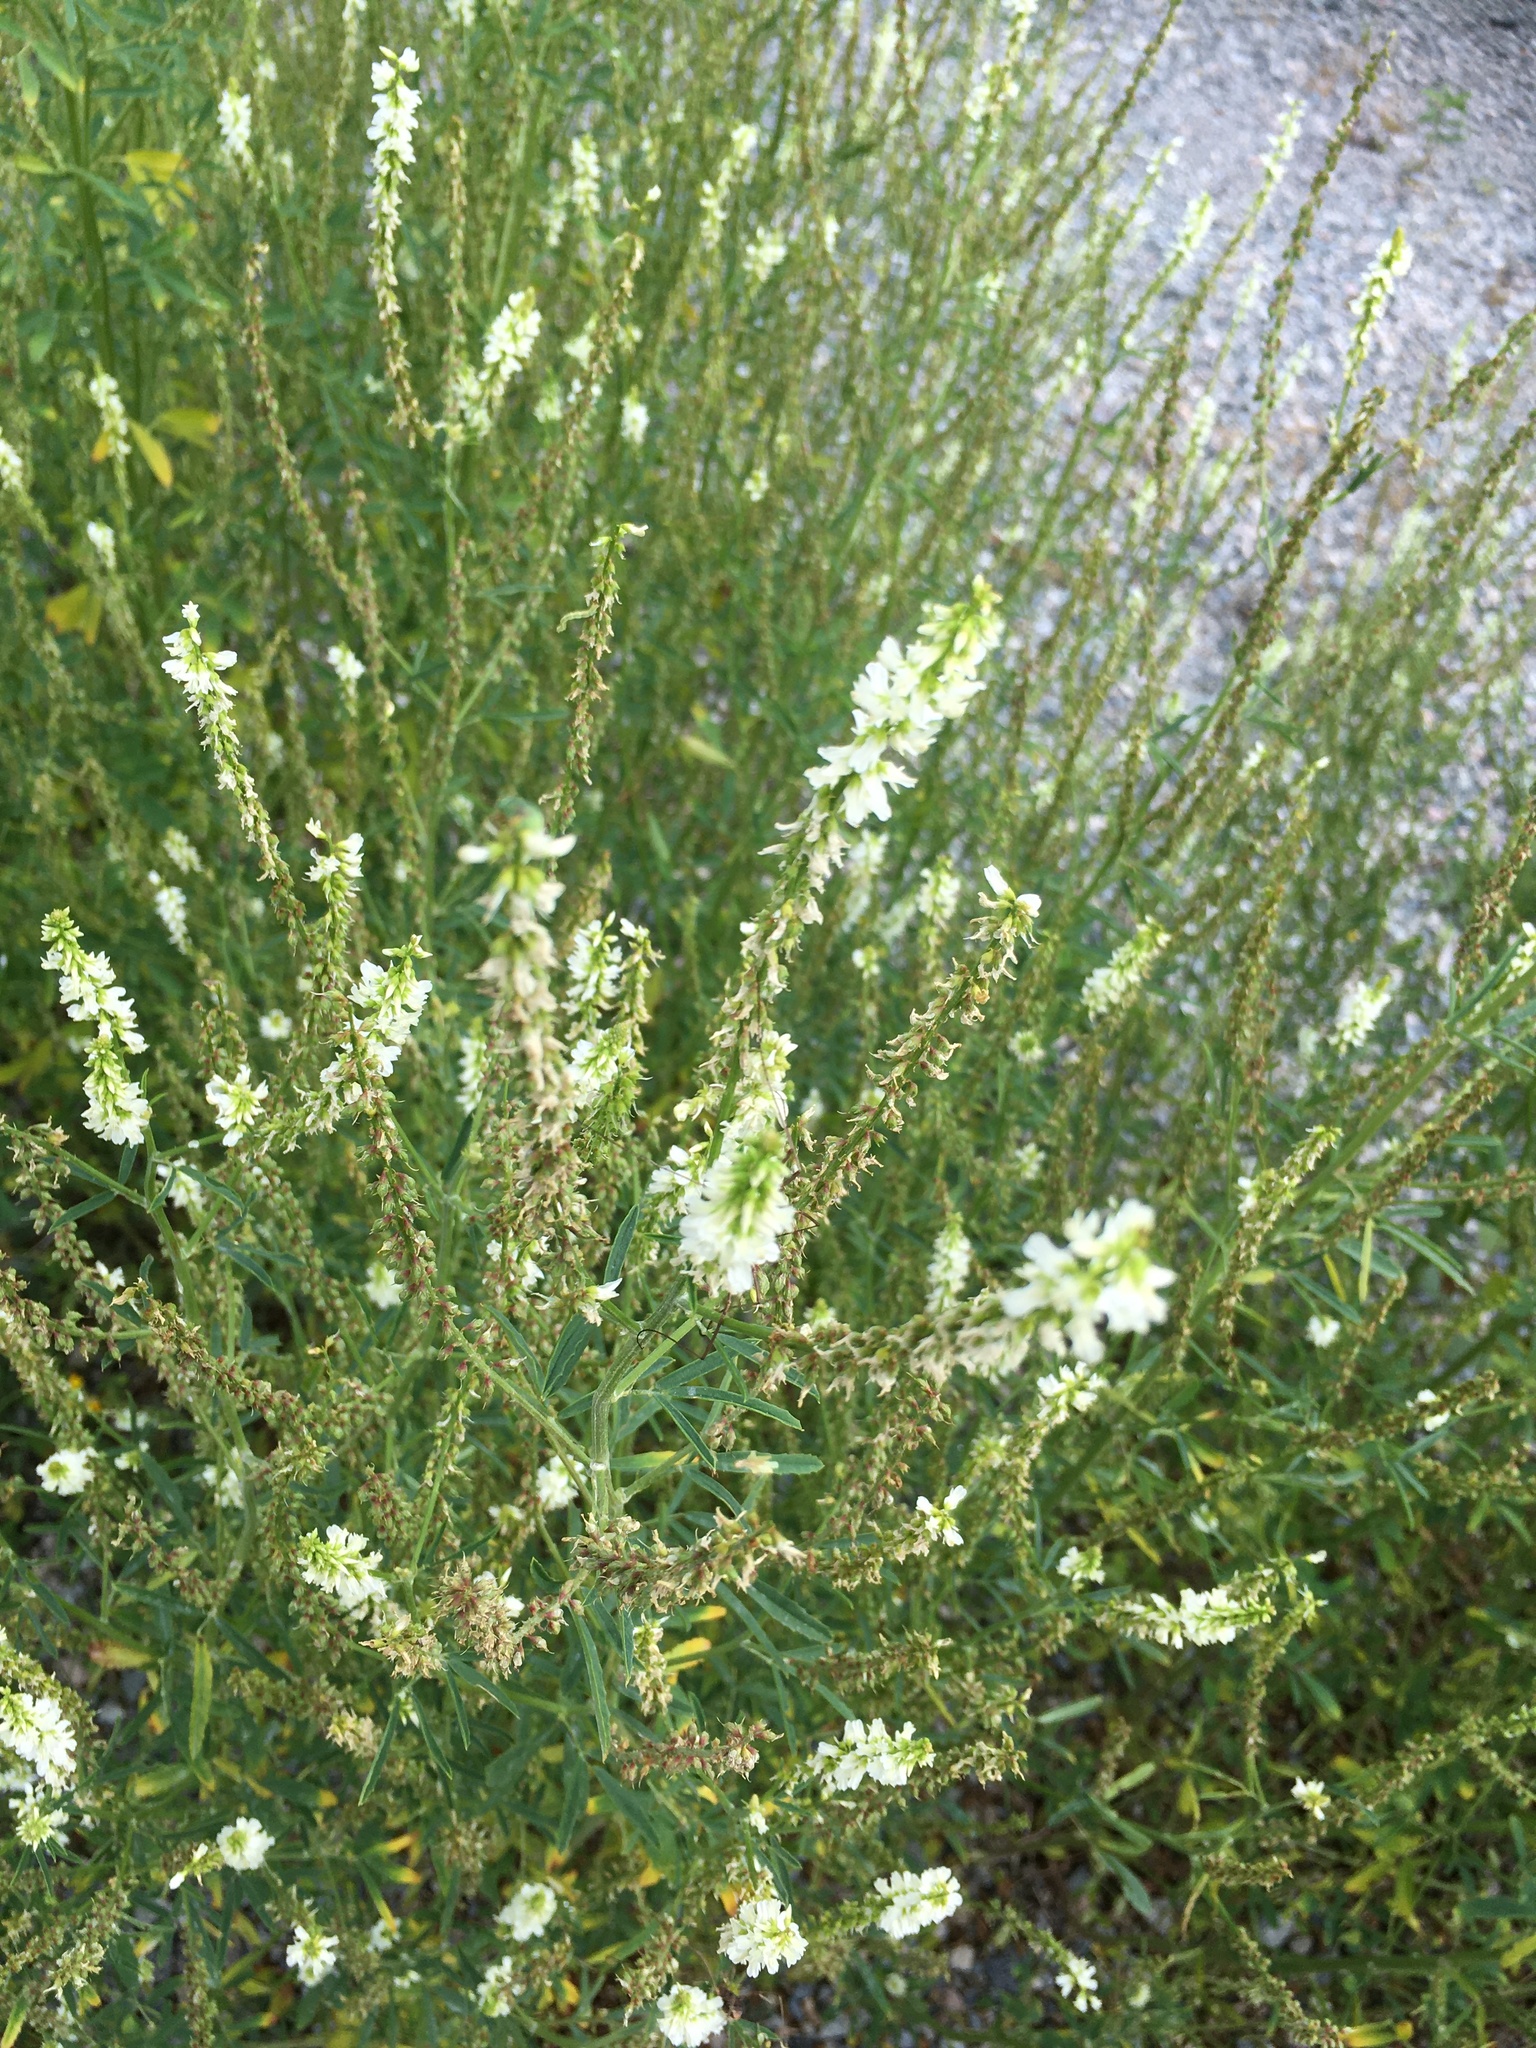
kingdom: Plantae
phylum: Tracheophyta
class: Magnoliopsida
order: Fabales
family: Fabaceae
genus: Melilotus
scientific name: Melilotus albus
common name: White melilot
